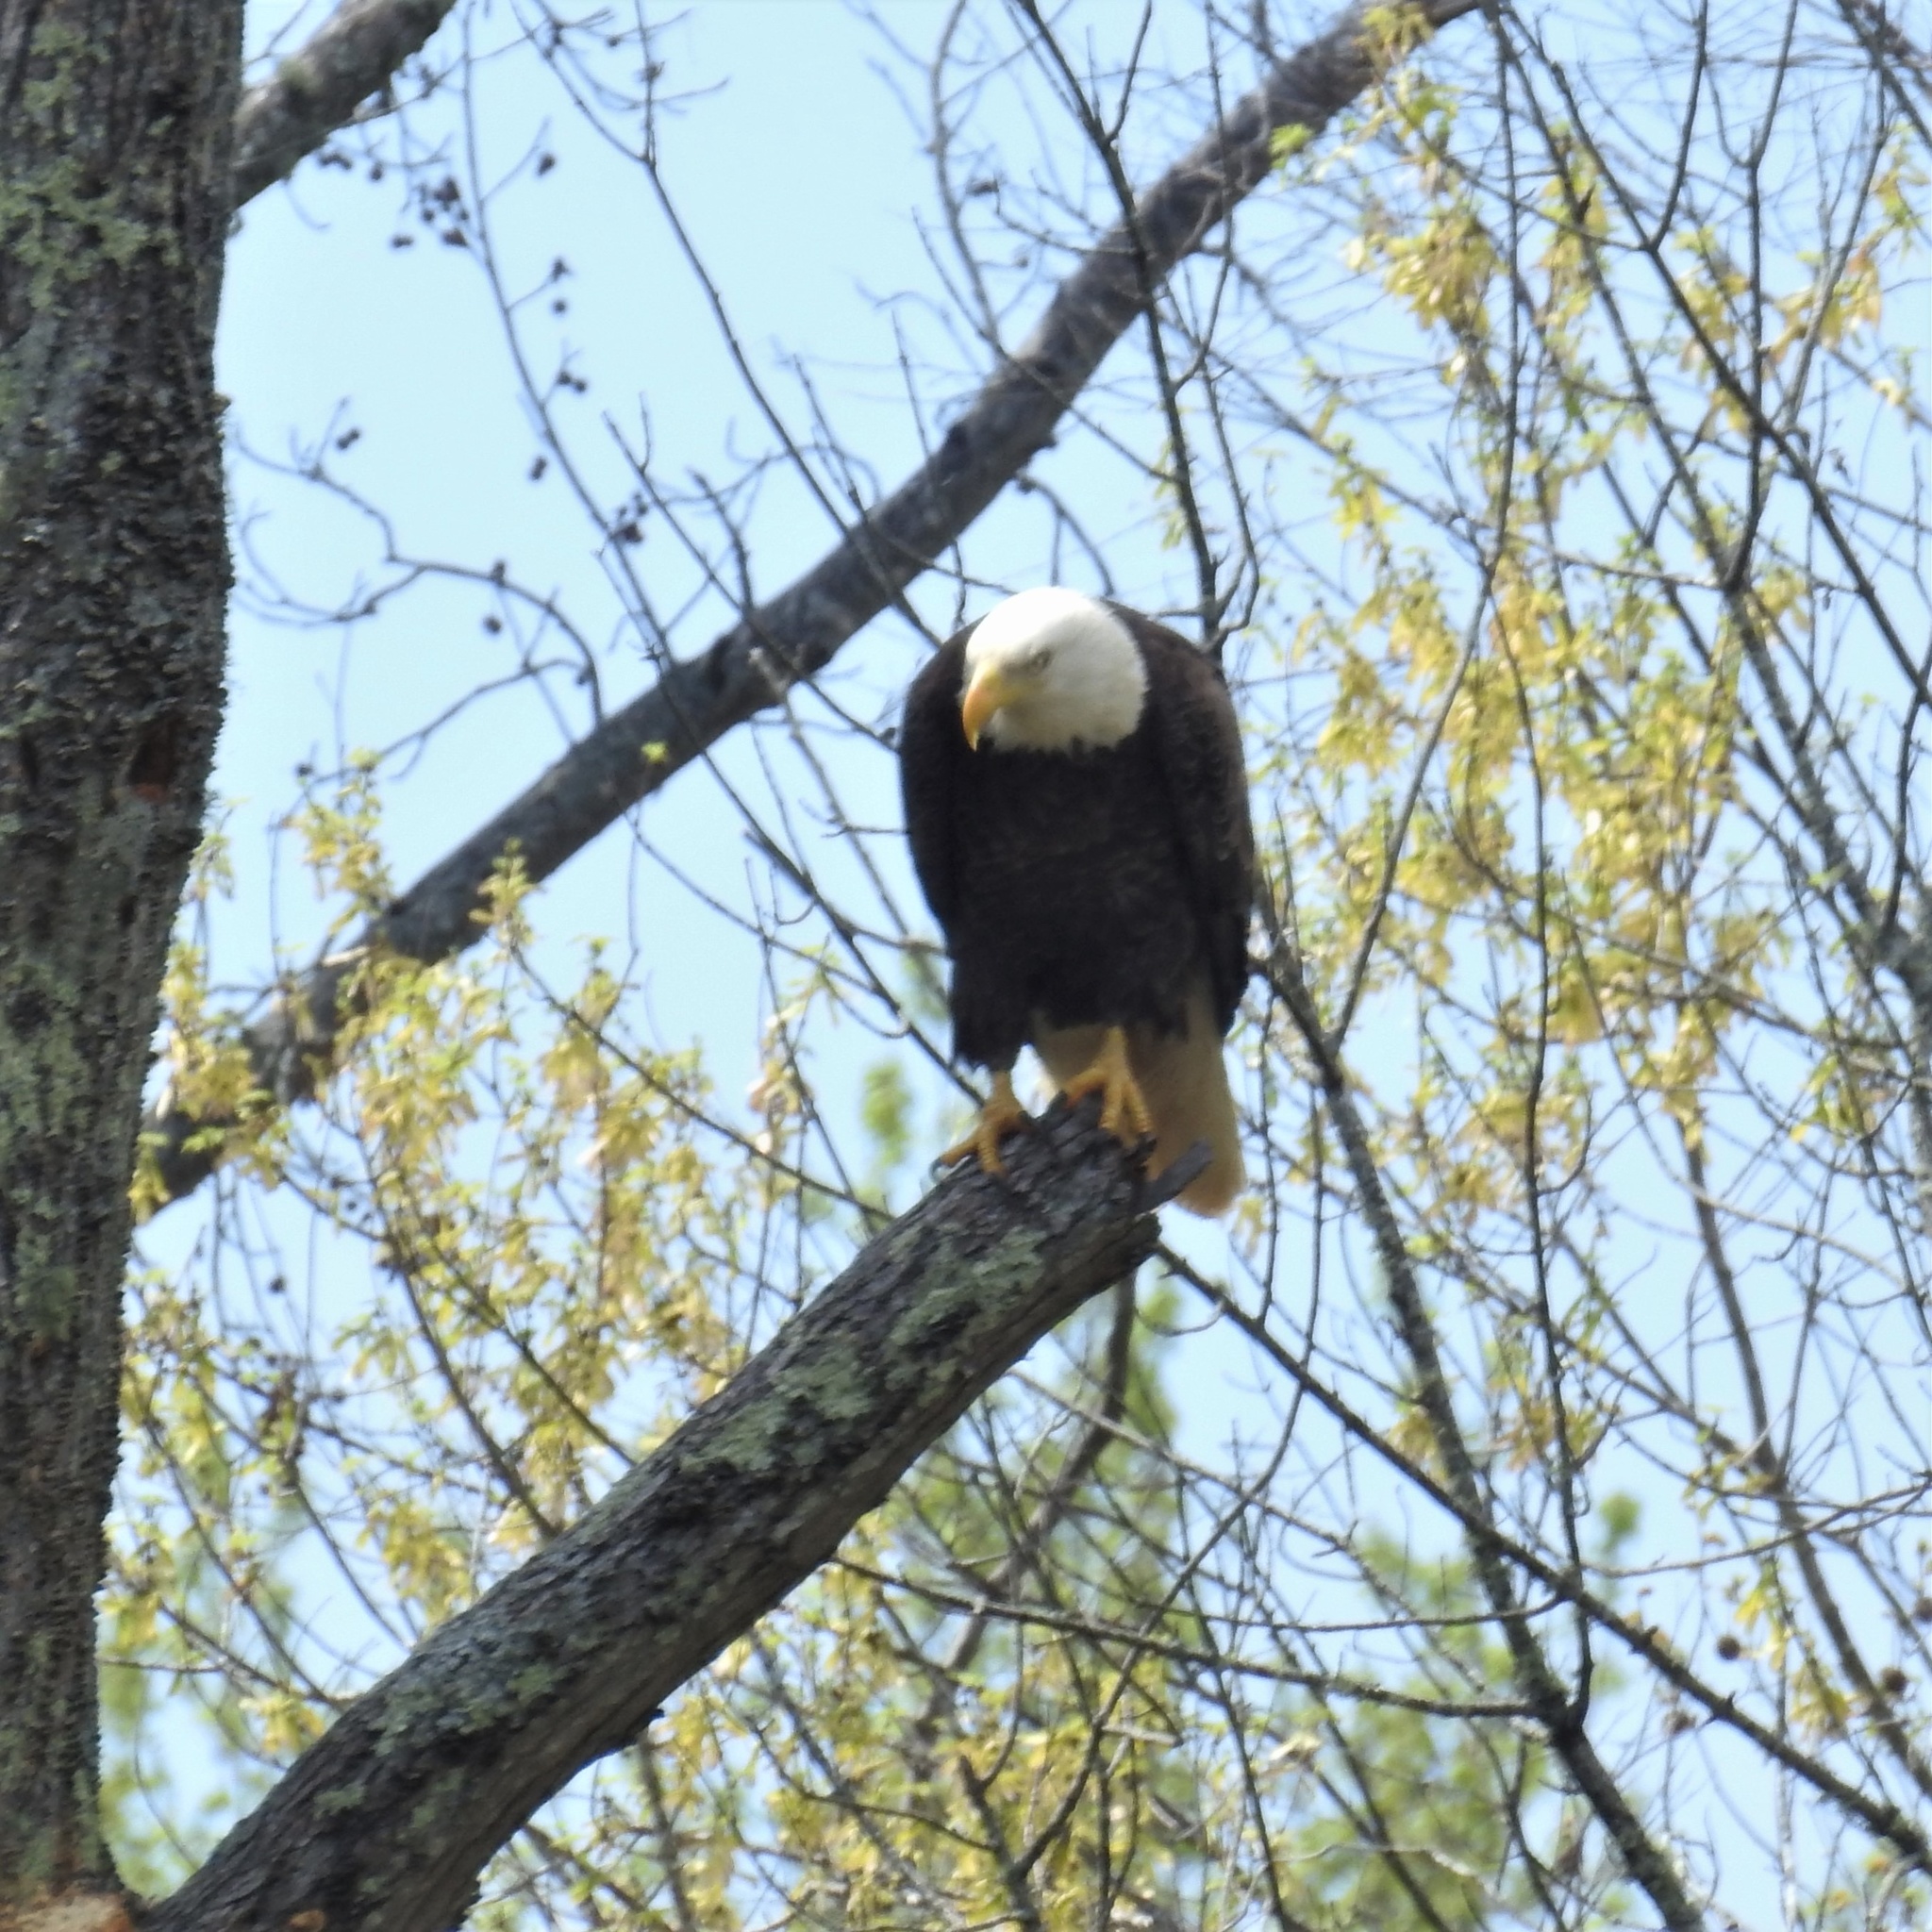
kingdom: Animalia
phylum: Chordata
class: Aves
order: Accipitriformes
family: Accipitridae
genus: Haliaeetus
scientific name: Haliaeetus leucocephalus
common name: Bald eagle
